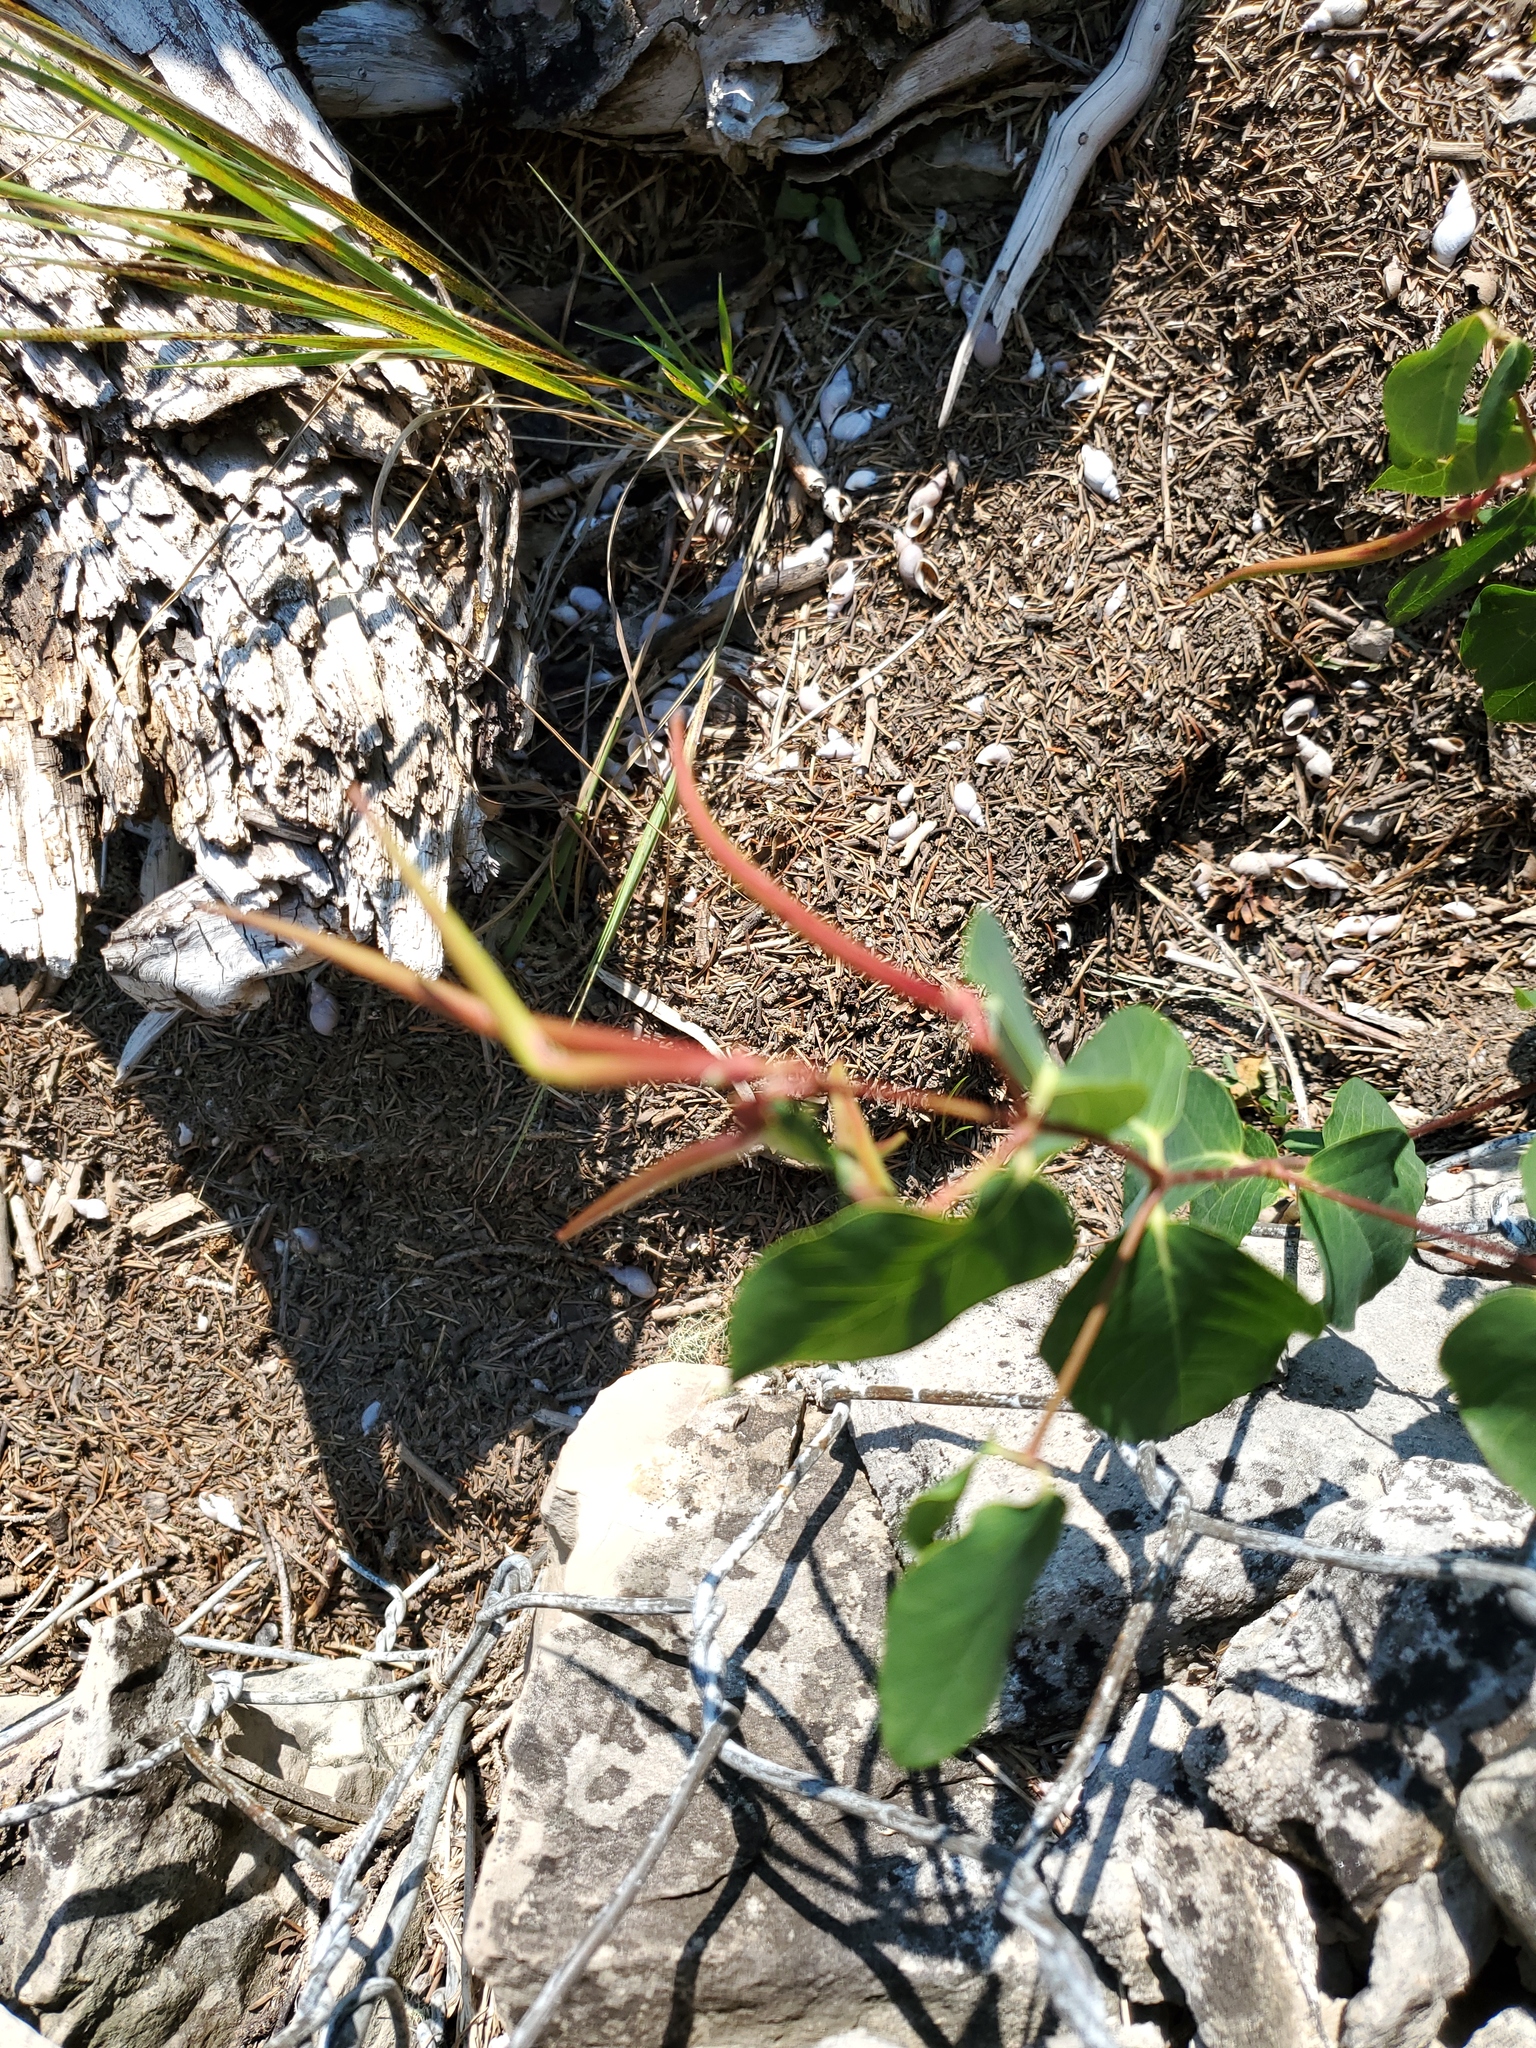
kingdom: Plantae
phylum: Tracheophyta
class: Magnoliopsida
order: Gentianales
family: Apocynaceae
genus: Apocynum
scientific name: Apocynum androsaemifolium
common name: Spreading dogbane
